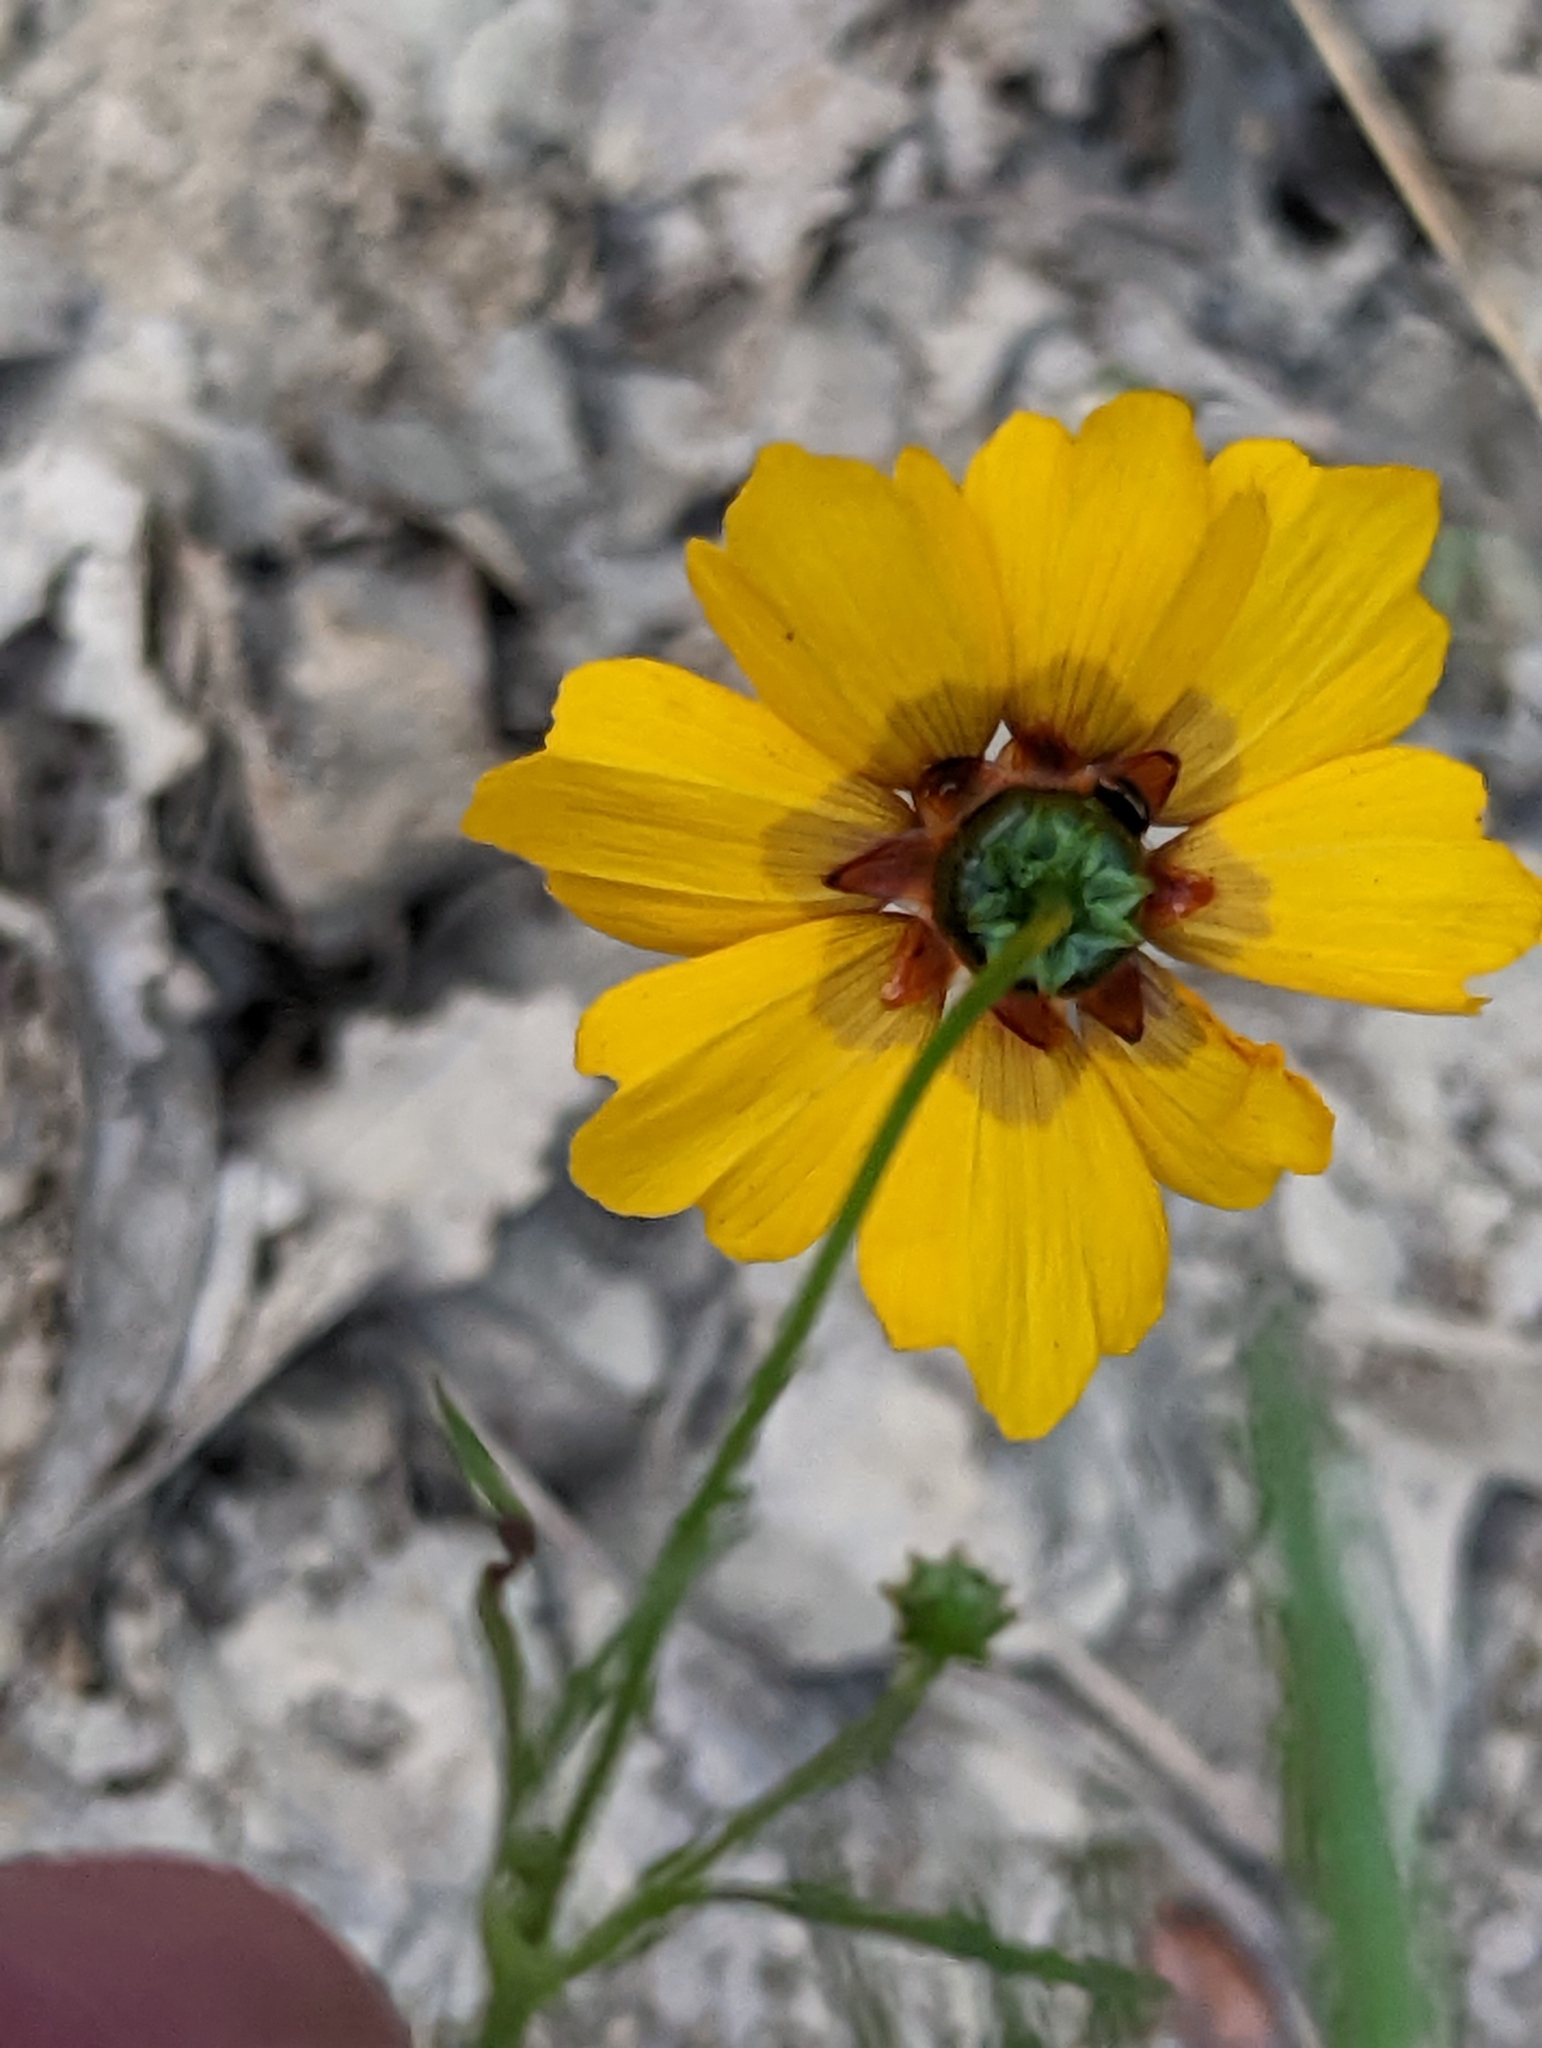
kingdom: Plantae
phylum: Tracheophyta
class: Magnoliopsida
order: Asterales
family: Asteraceae
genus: Coreopsis
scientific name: Coreopsis tinctoria
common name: Garden tickseed
